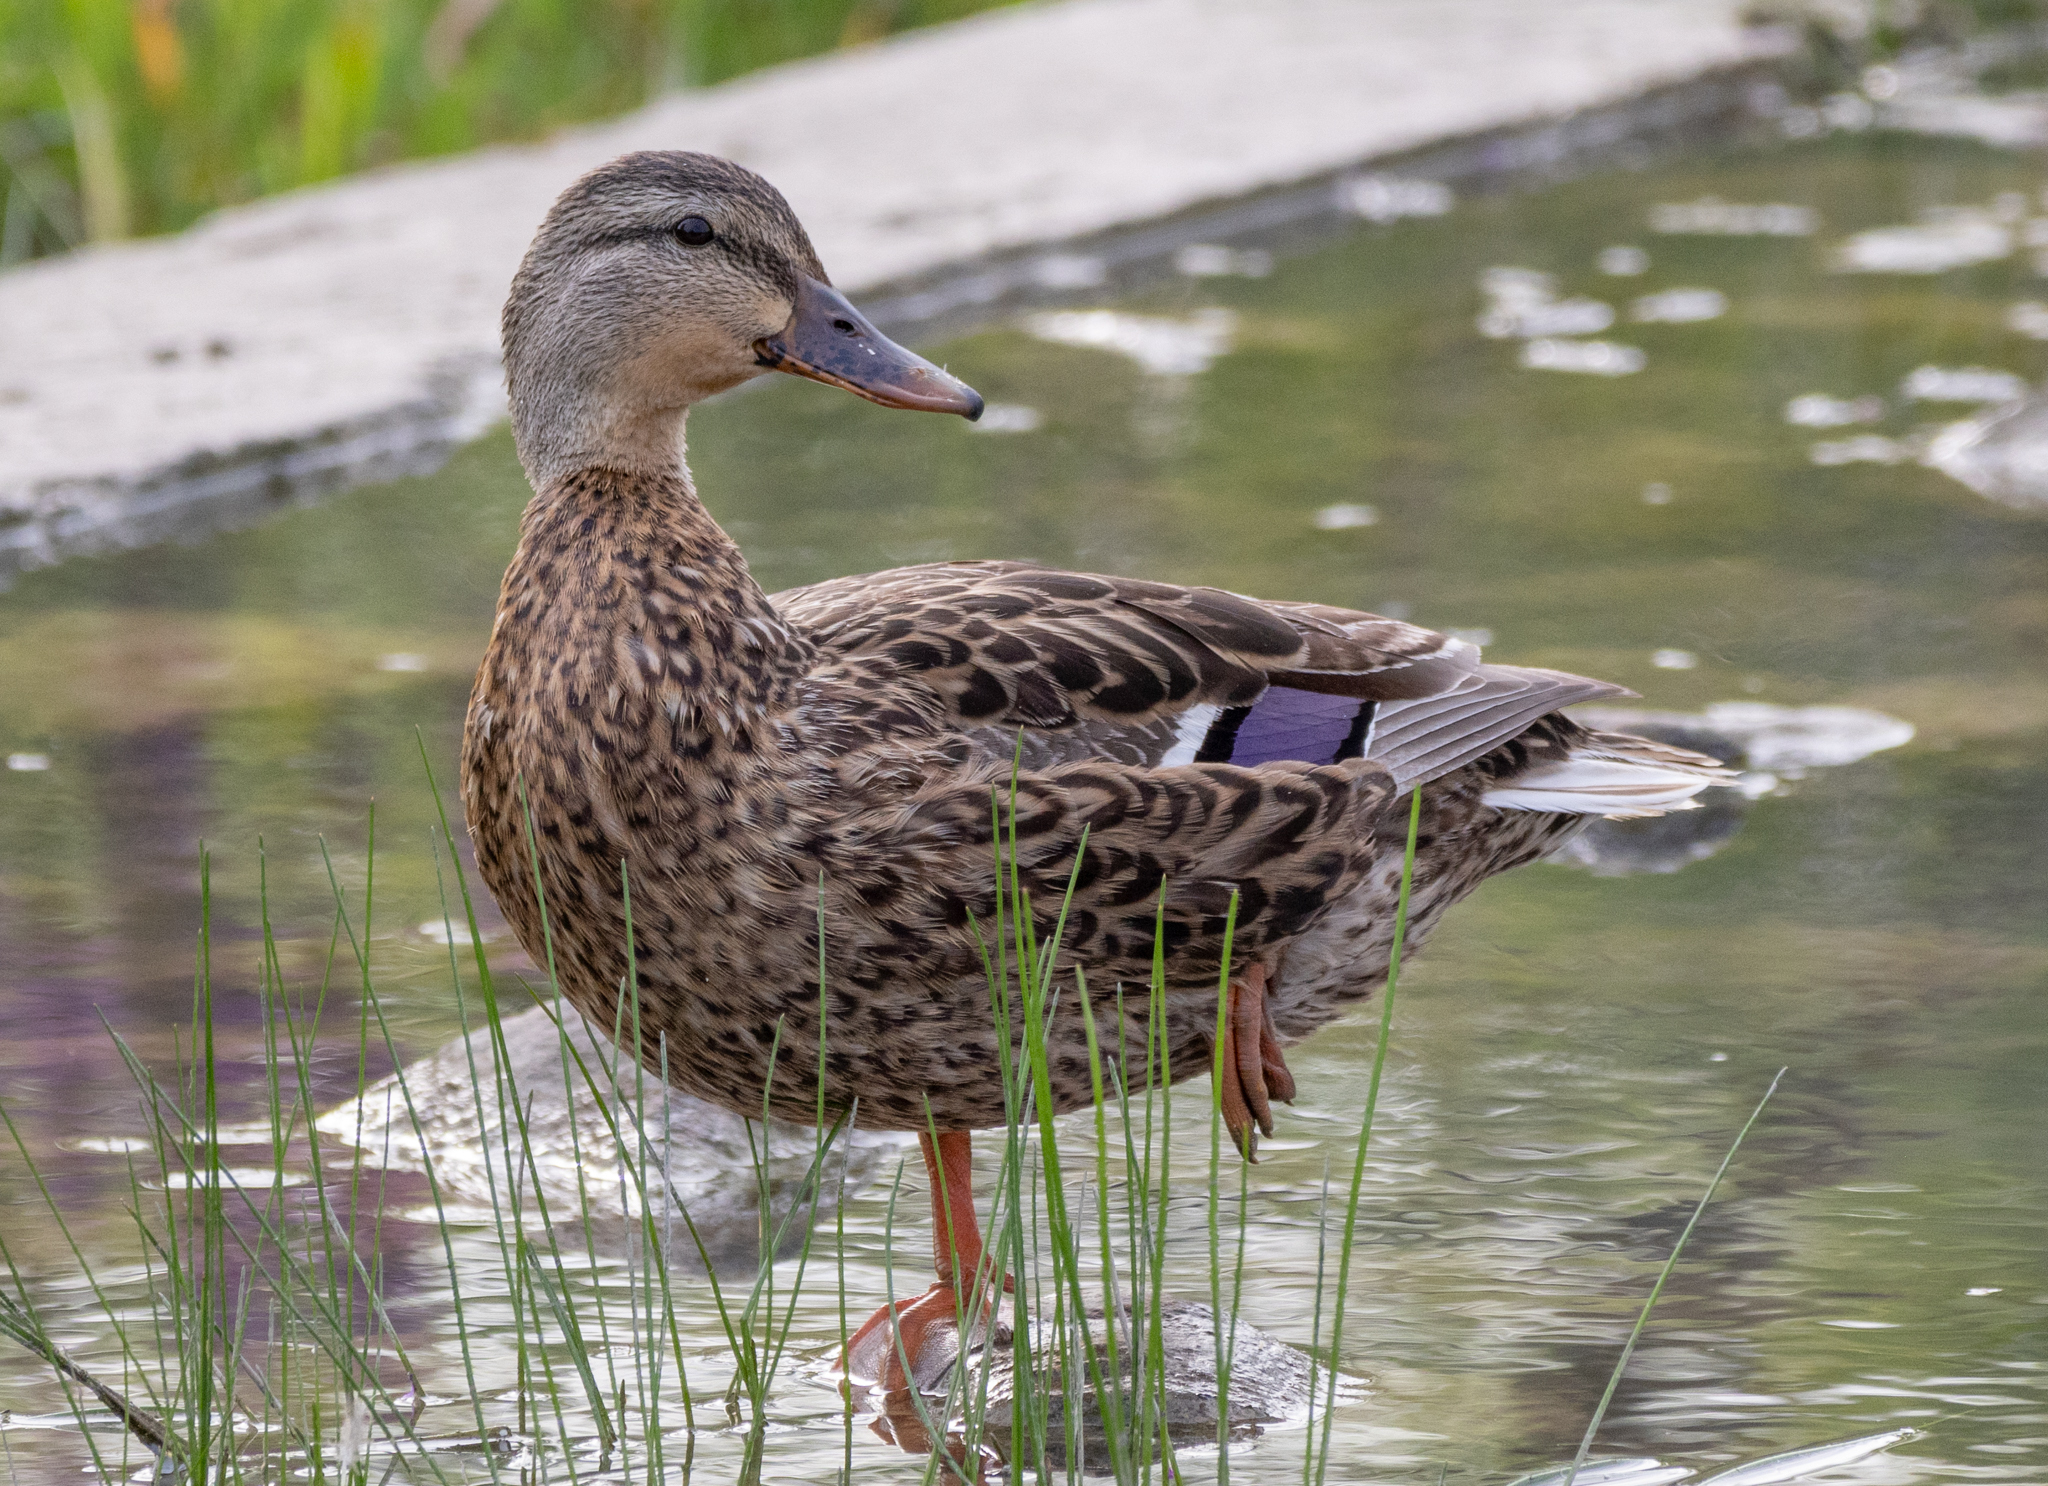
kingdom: Animalia
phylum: Chordata
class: Aves
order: Anseriformes
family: Anatidae
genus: Anas
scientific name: Anas platyrhynchos
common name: Mallard
